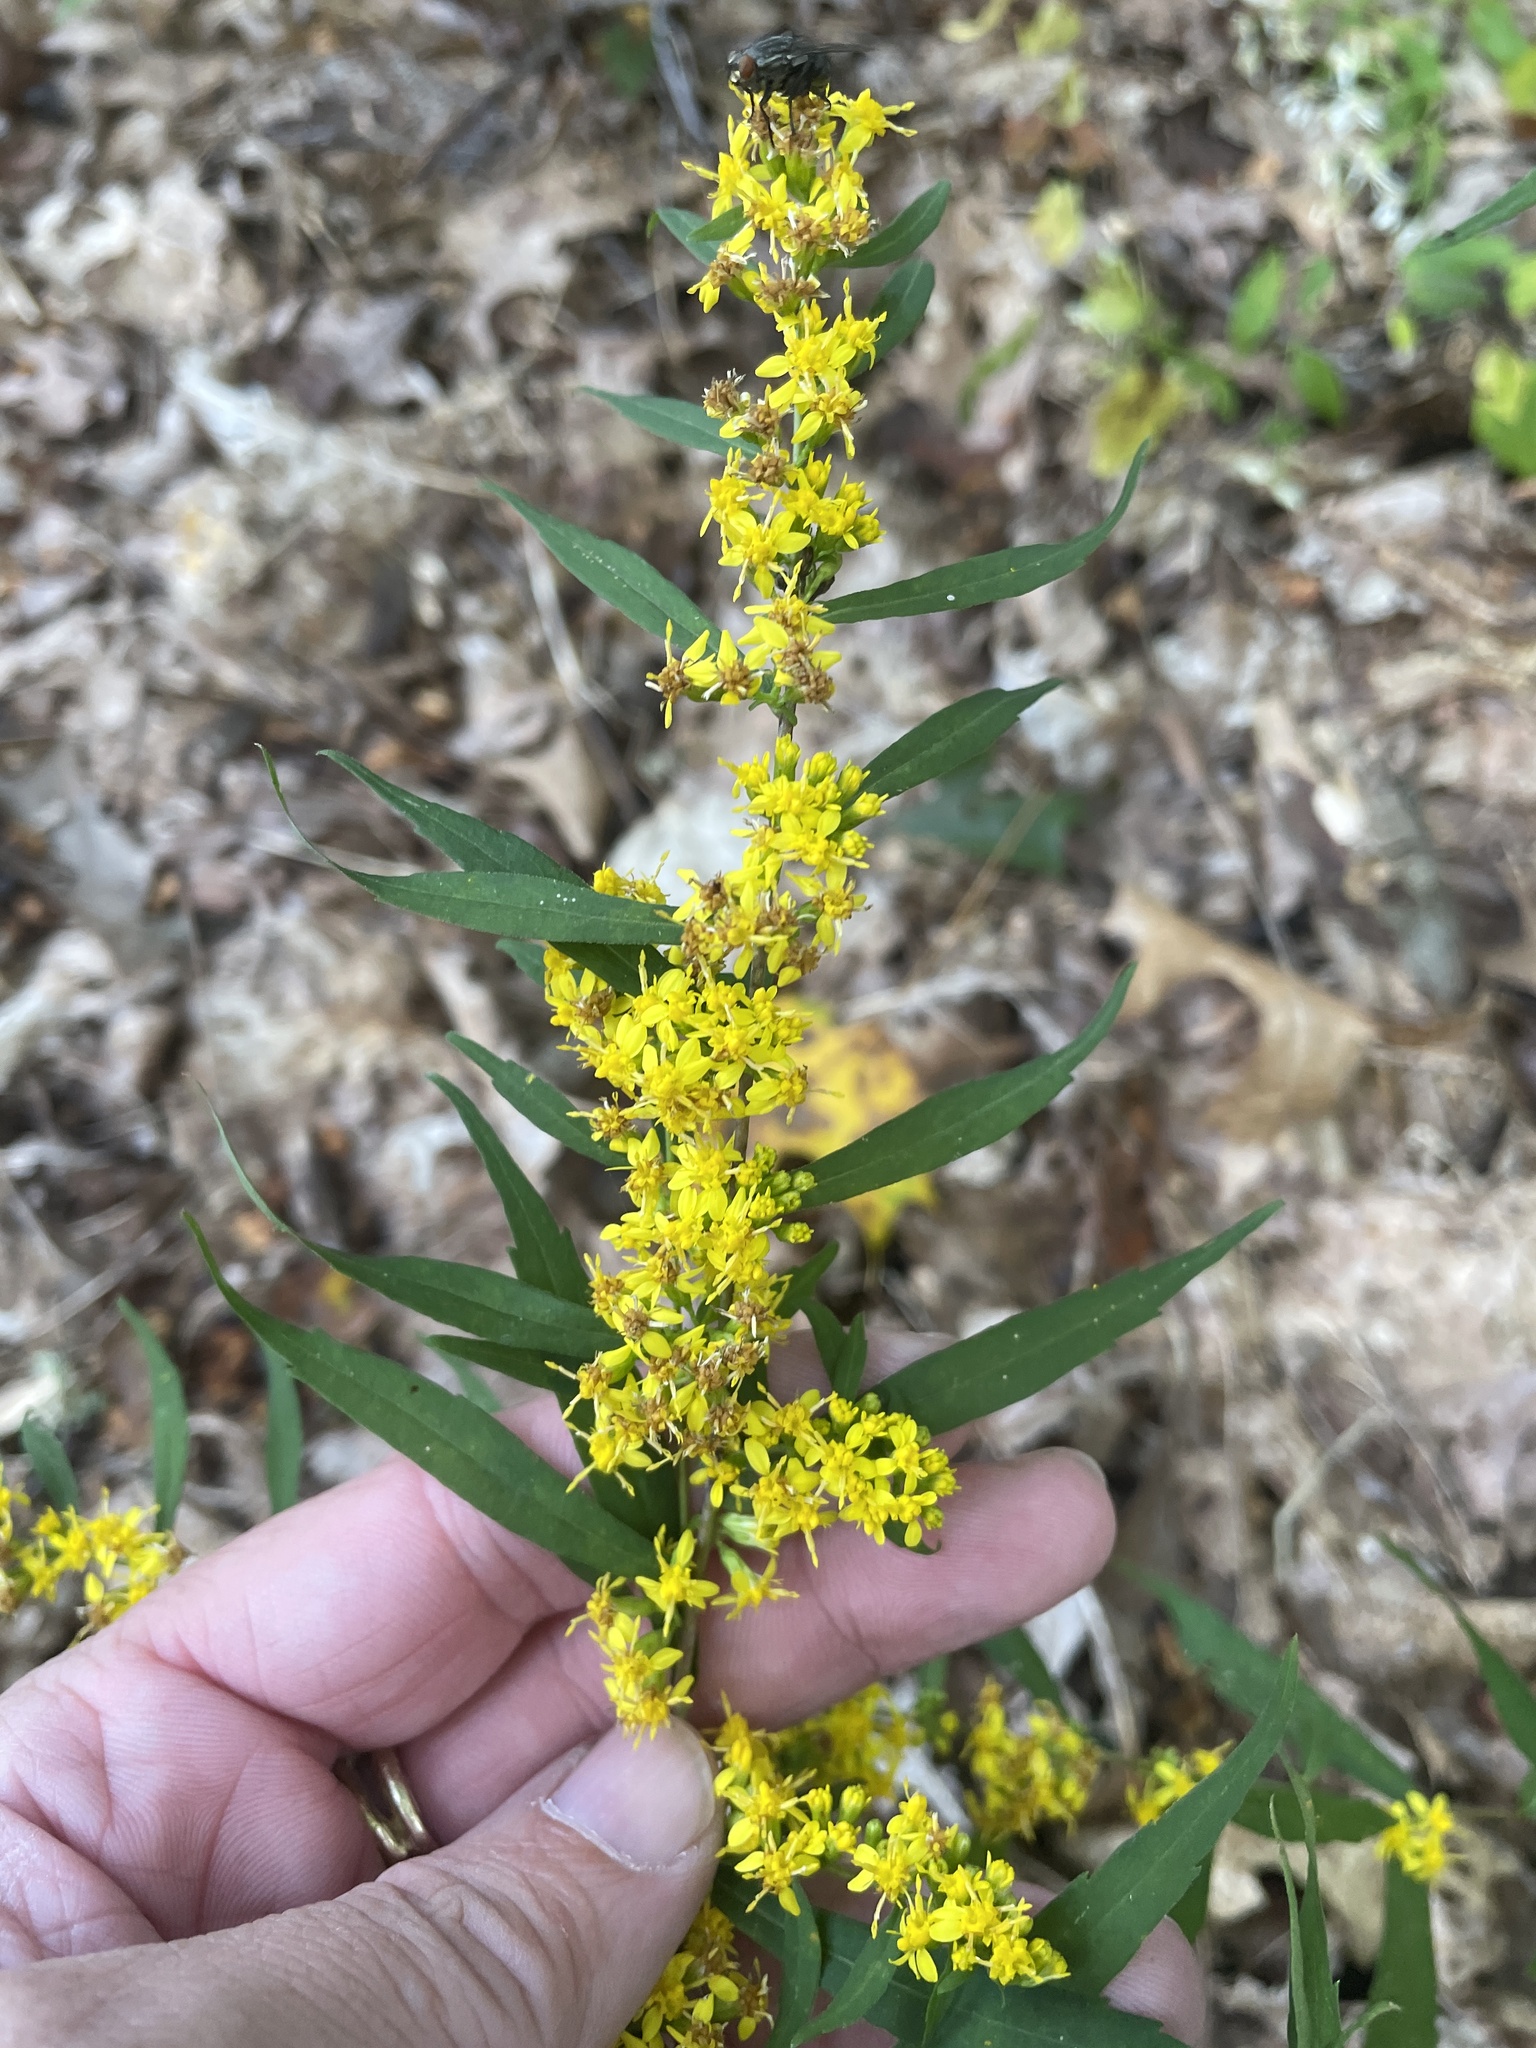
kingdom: Plantae
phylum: Tracheophyta
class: Magnoliopsida
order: Asterales
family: Asteraceae
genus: Solidago
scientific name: Solidago caesia
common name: Woodland goldenrod
